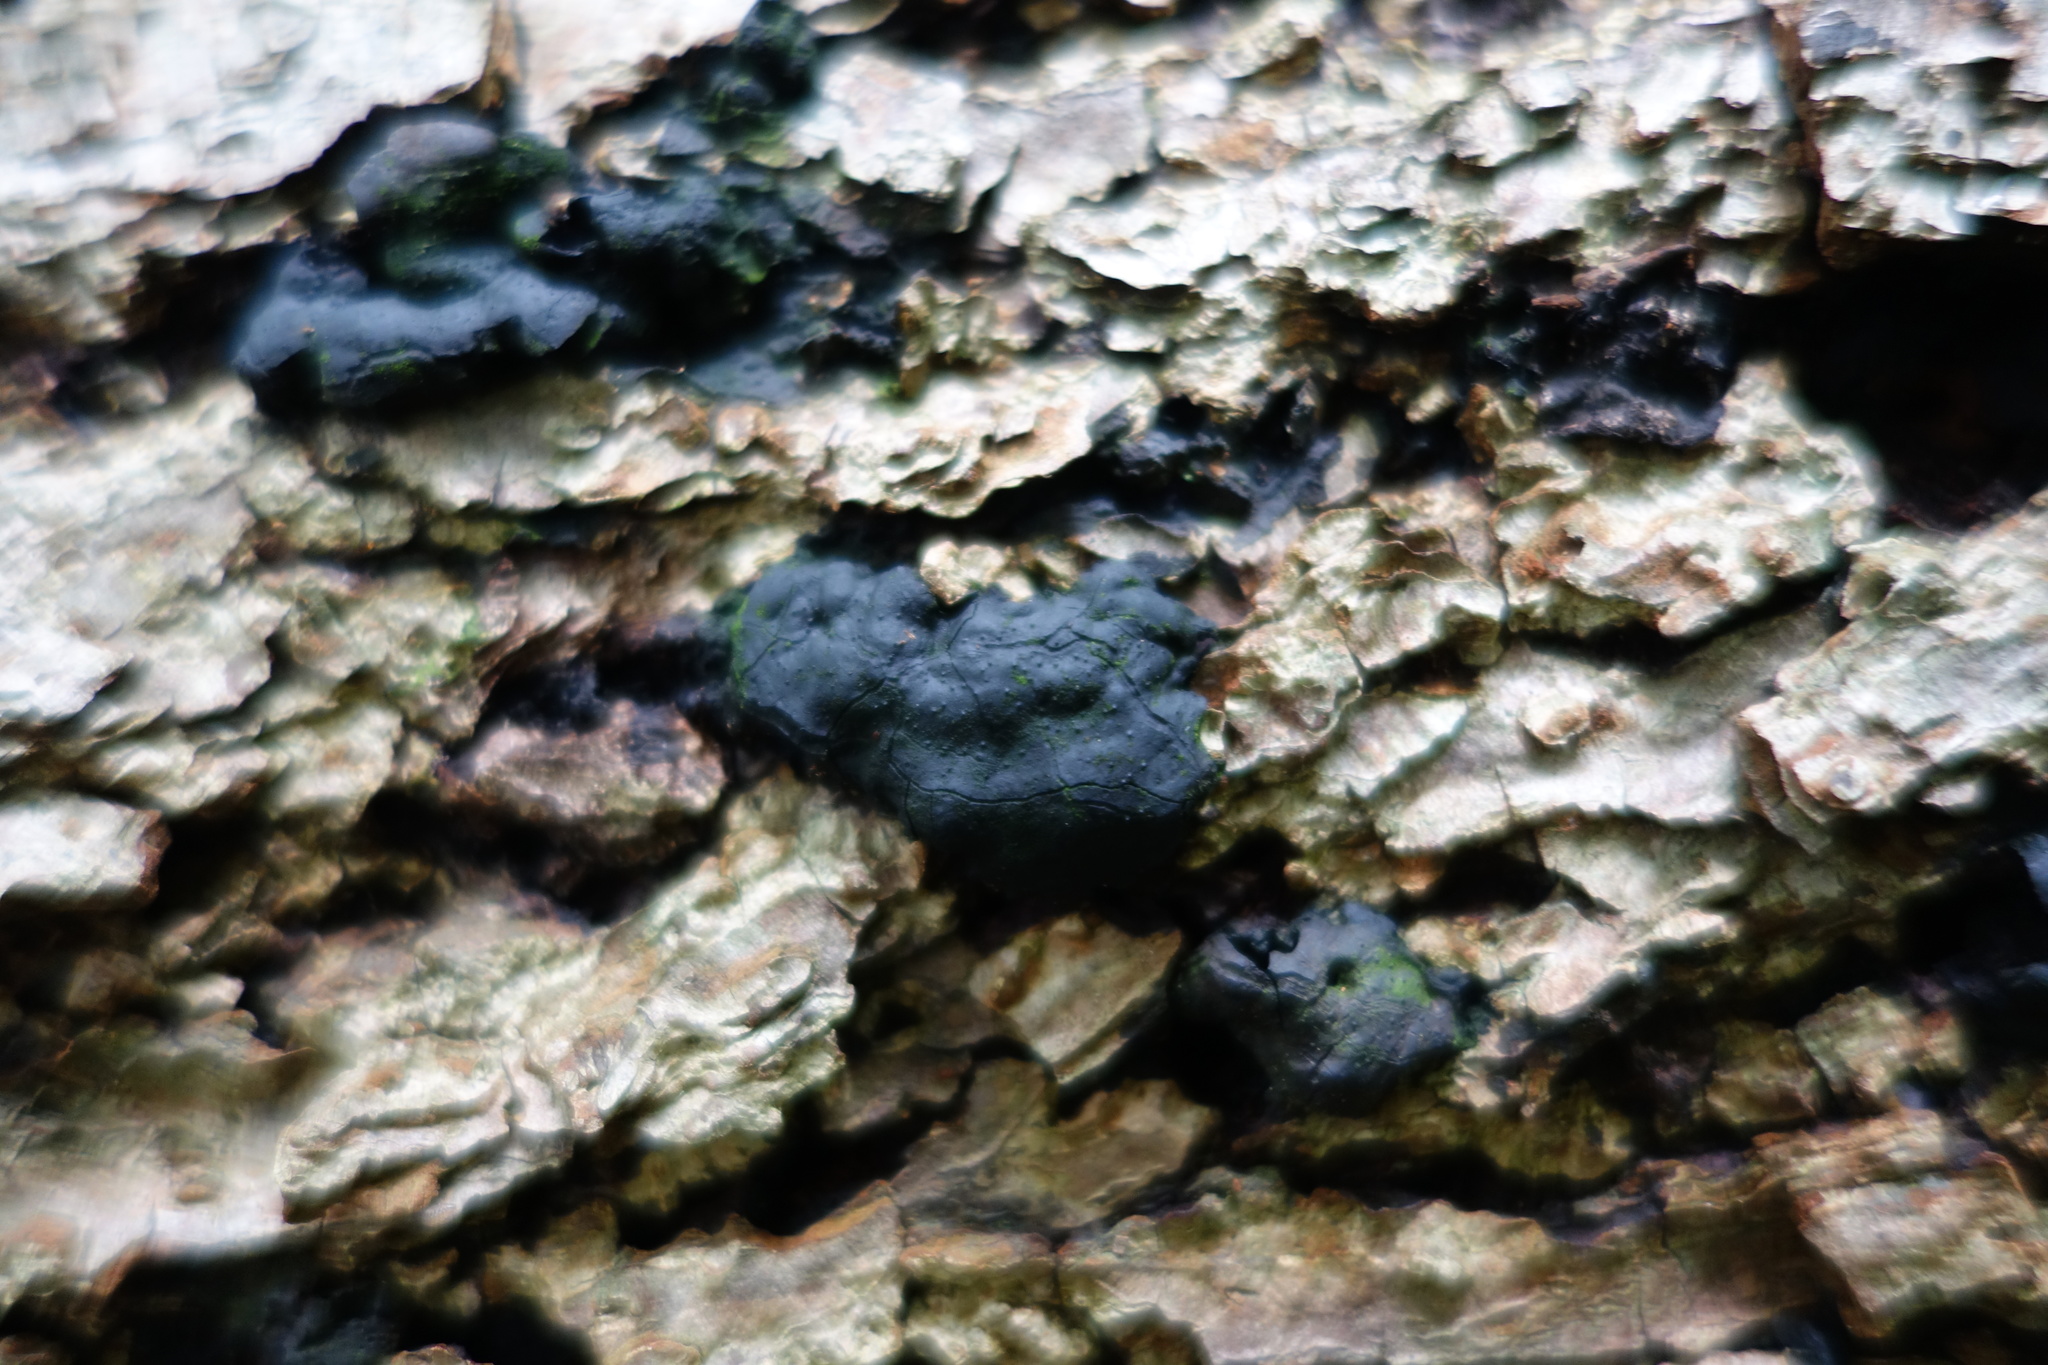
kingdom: Fungi
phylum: Ascomycota
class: Sordariomycetes
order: Xylariales
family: Xylariaceae
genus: Kretzschmaria
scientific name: Kretzschmaria deusta
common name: Brittle cinder
